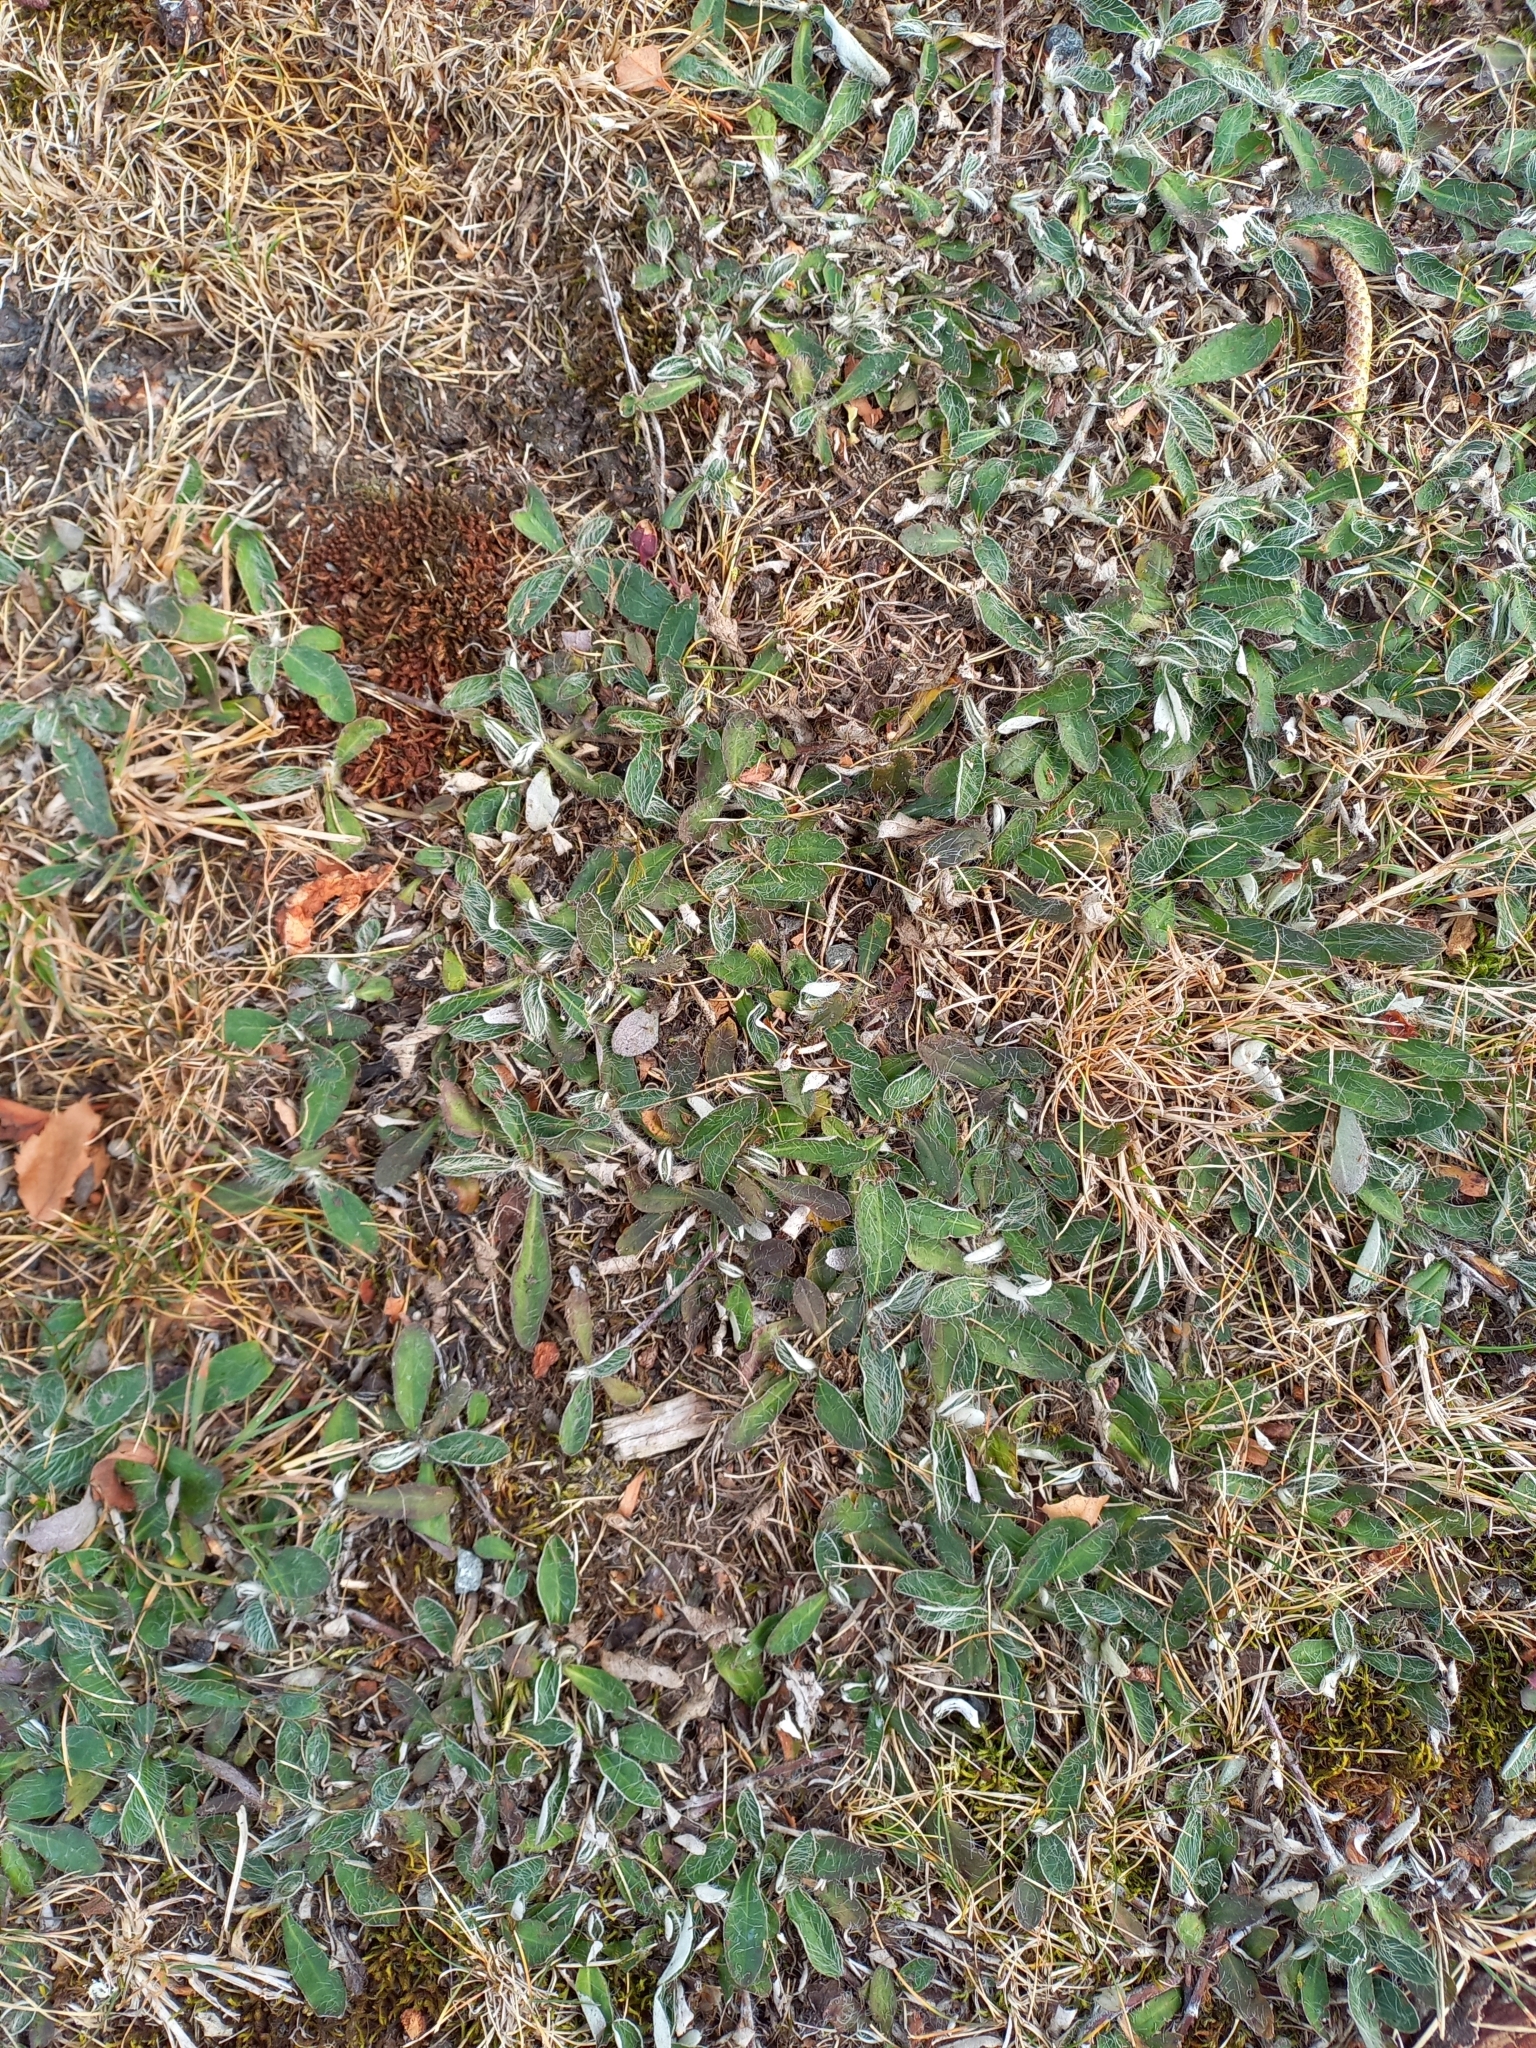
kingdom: Plantae
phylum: Tracheophyta
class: Magnoliopsida
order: Asterales
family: Asteraceae
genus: Pilosella
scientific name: Pilosella officinarum
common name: Mouse-ear hawkweed
